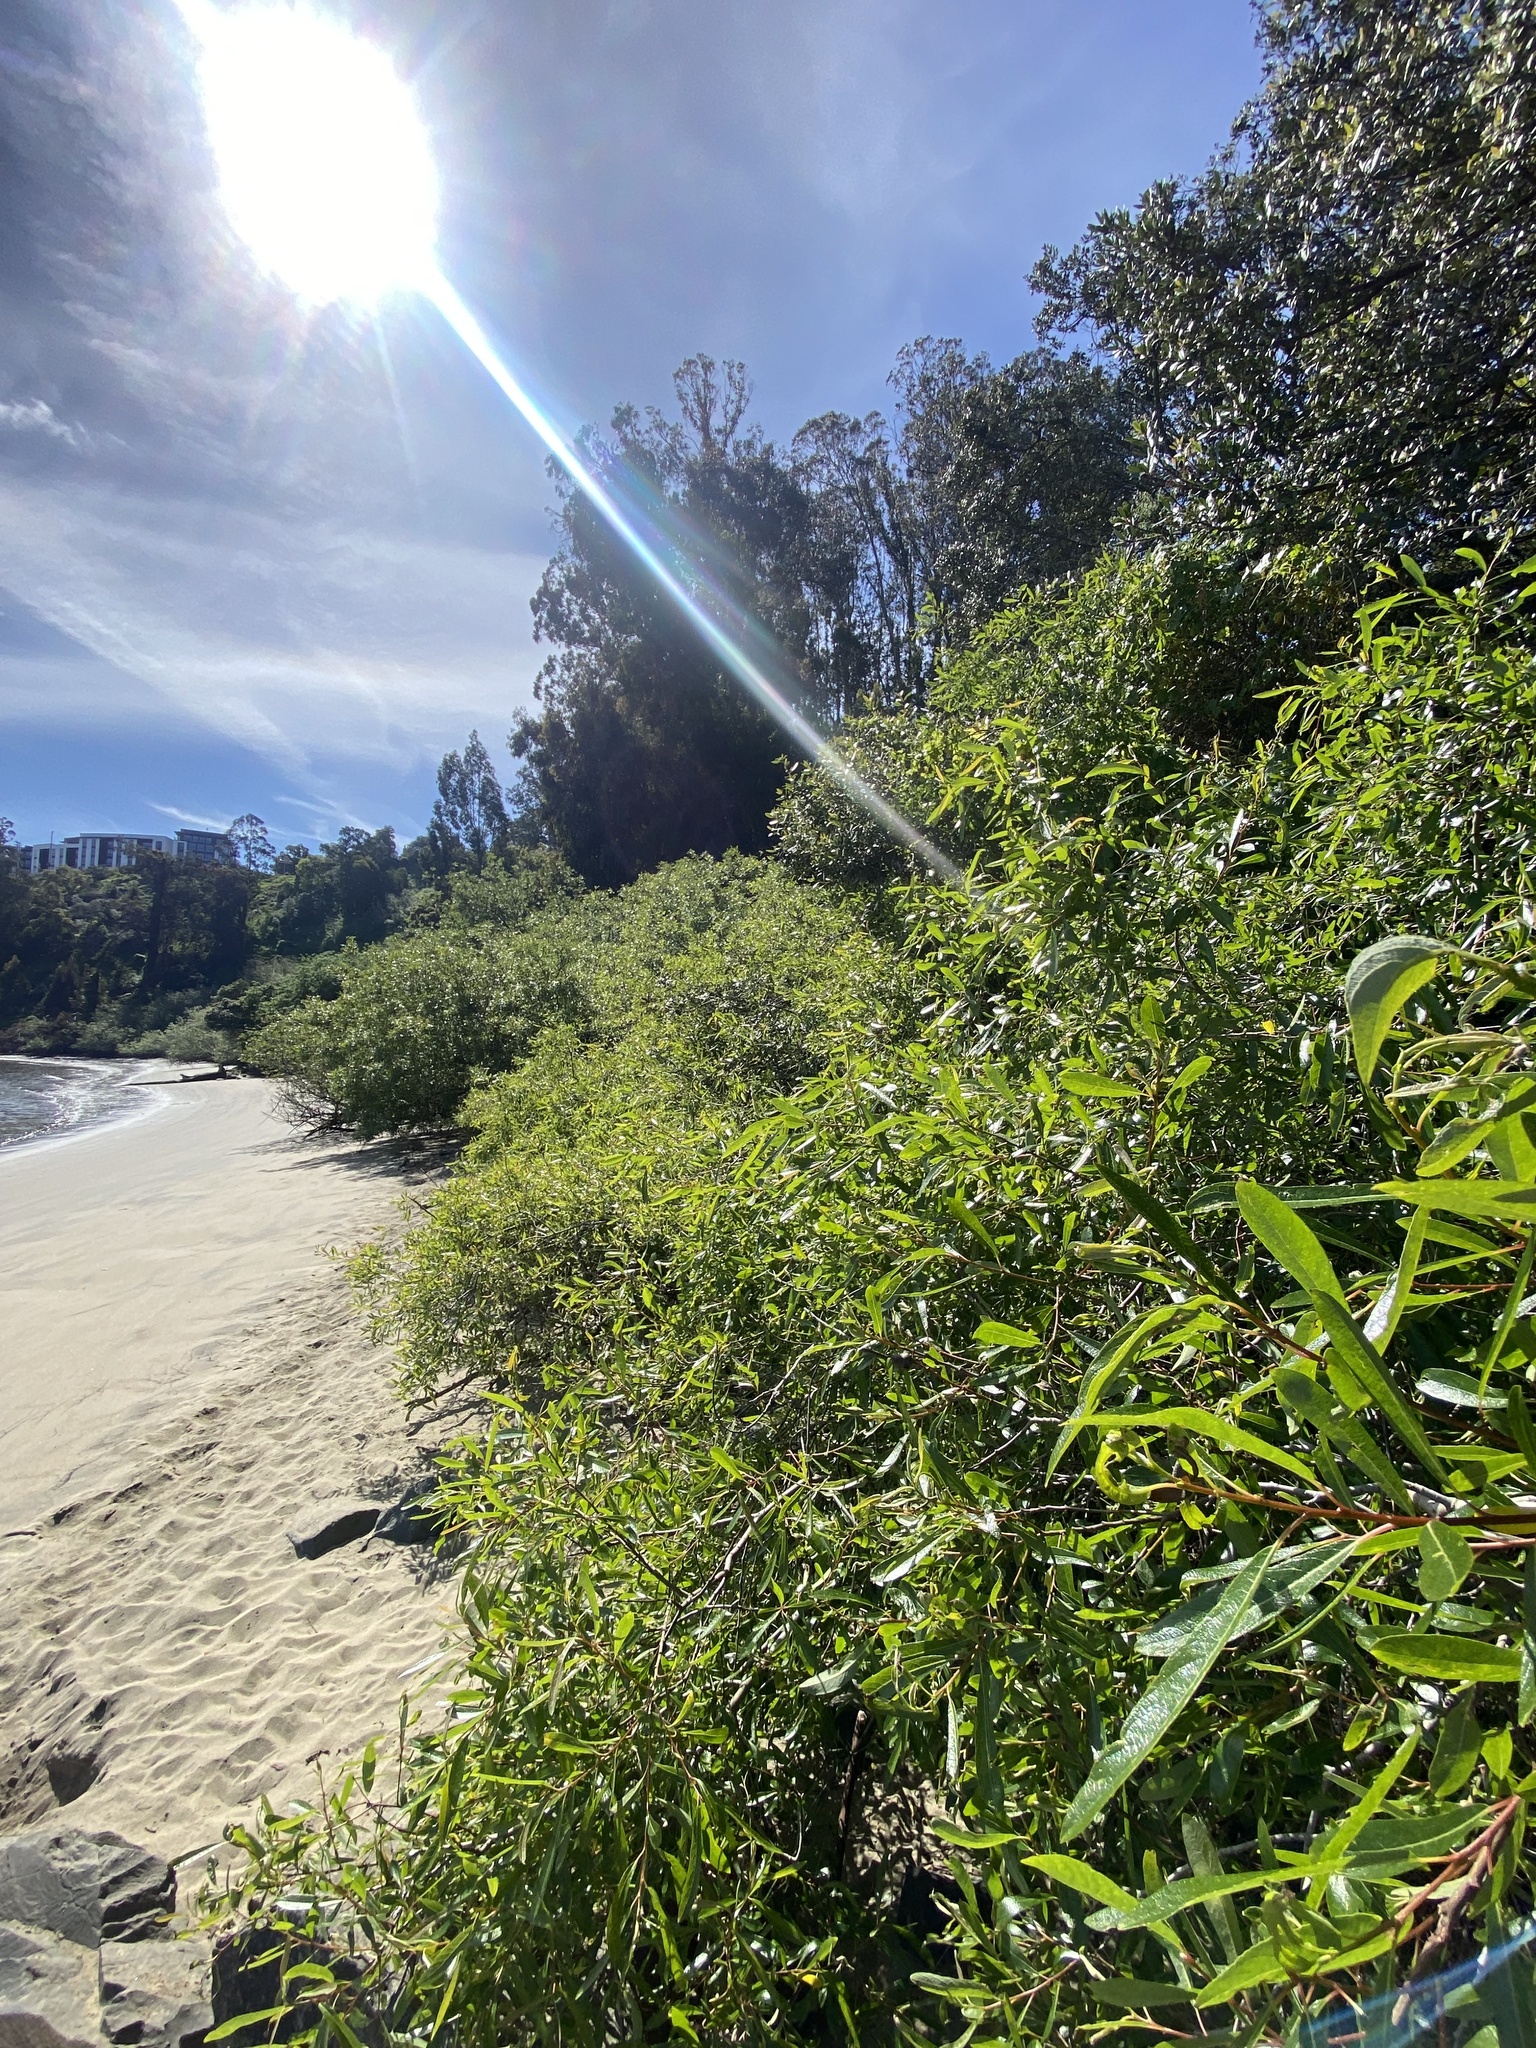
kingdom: Plantae
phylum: Tracheophyta
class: Magnoliopsida
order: Malpighiales
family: Salicaceae
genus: Salix
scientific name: Salix lasiolepis
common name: Arroyo willow
